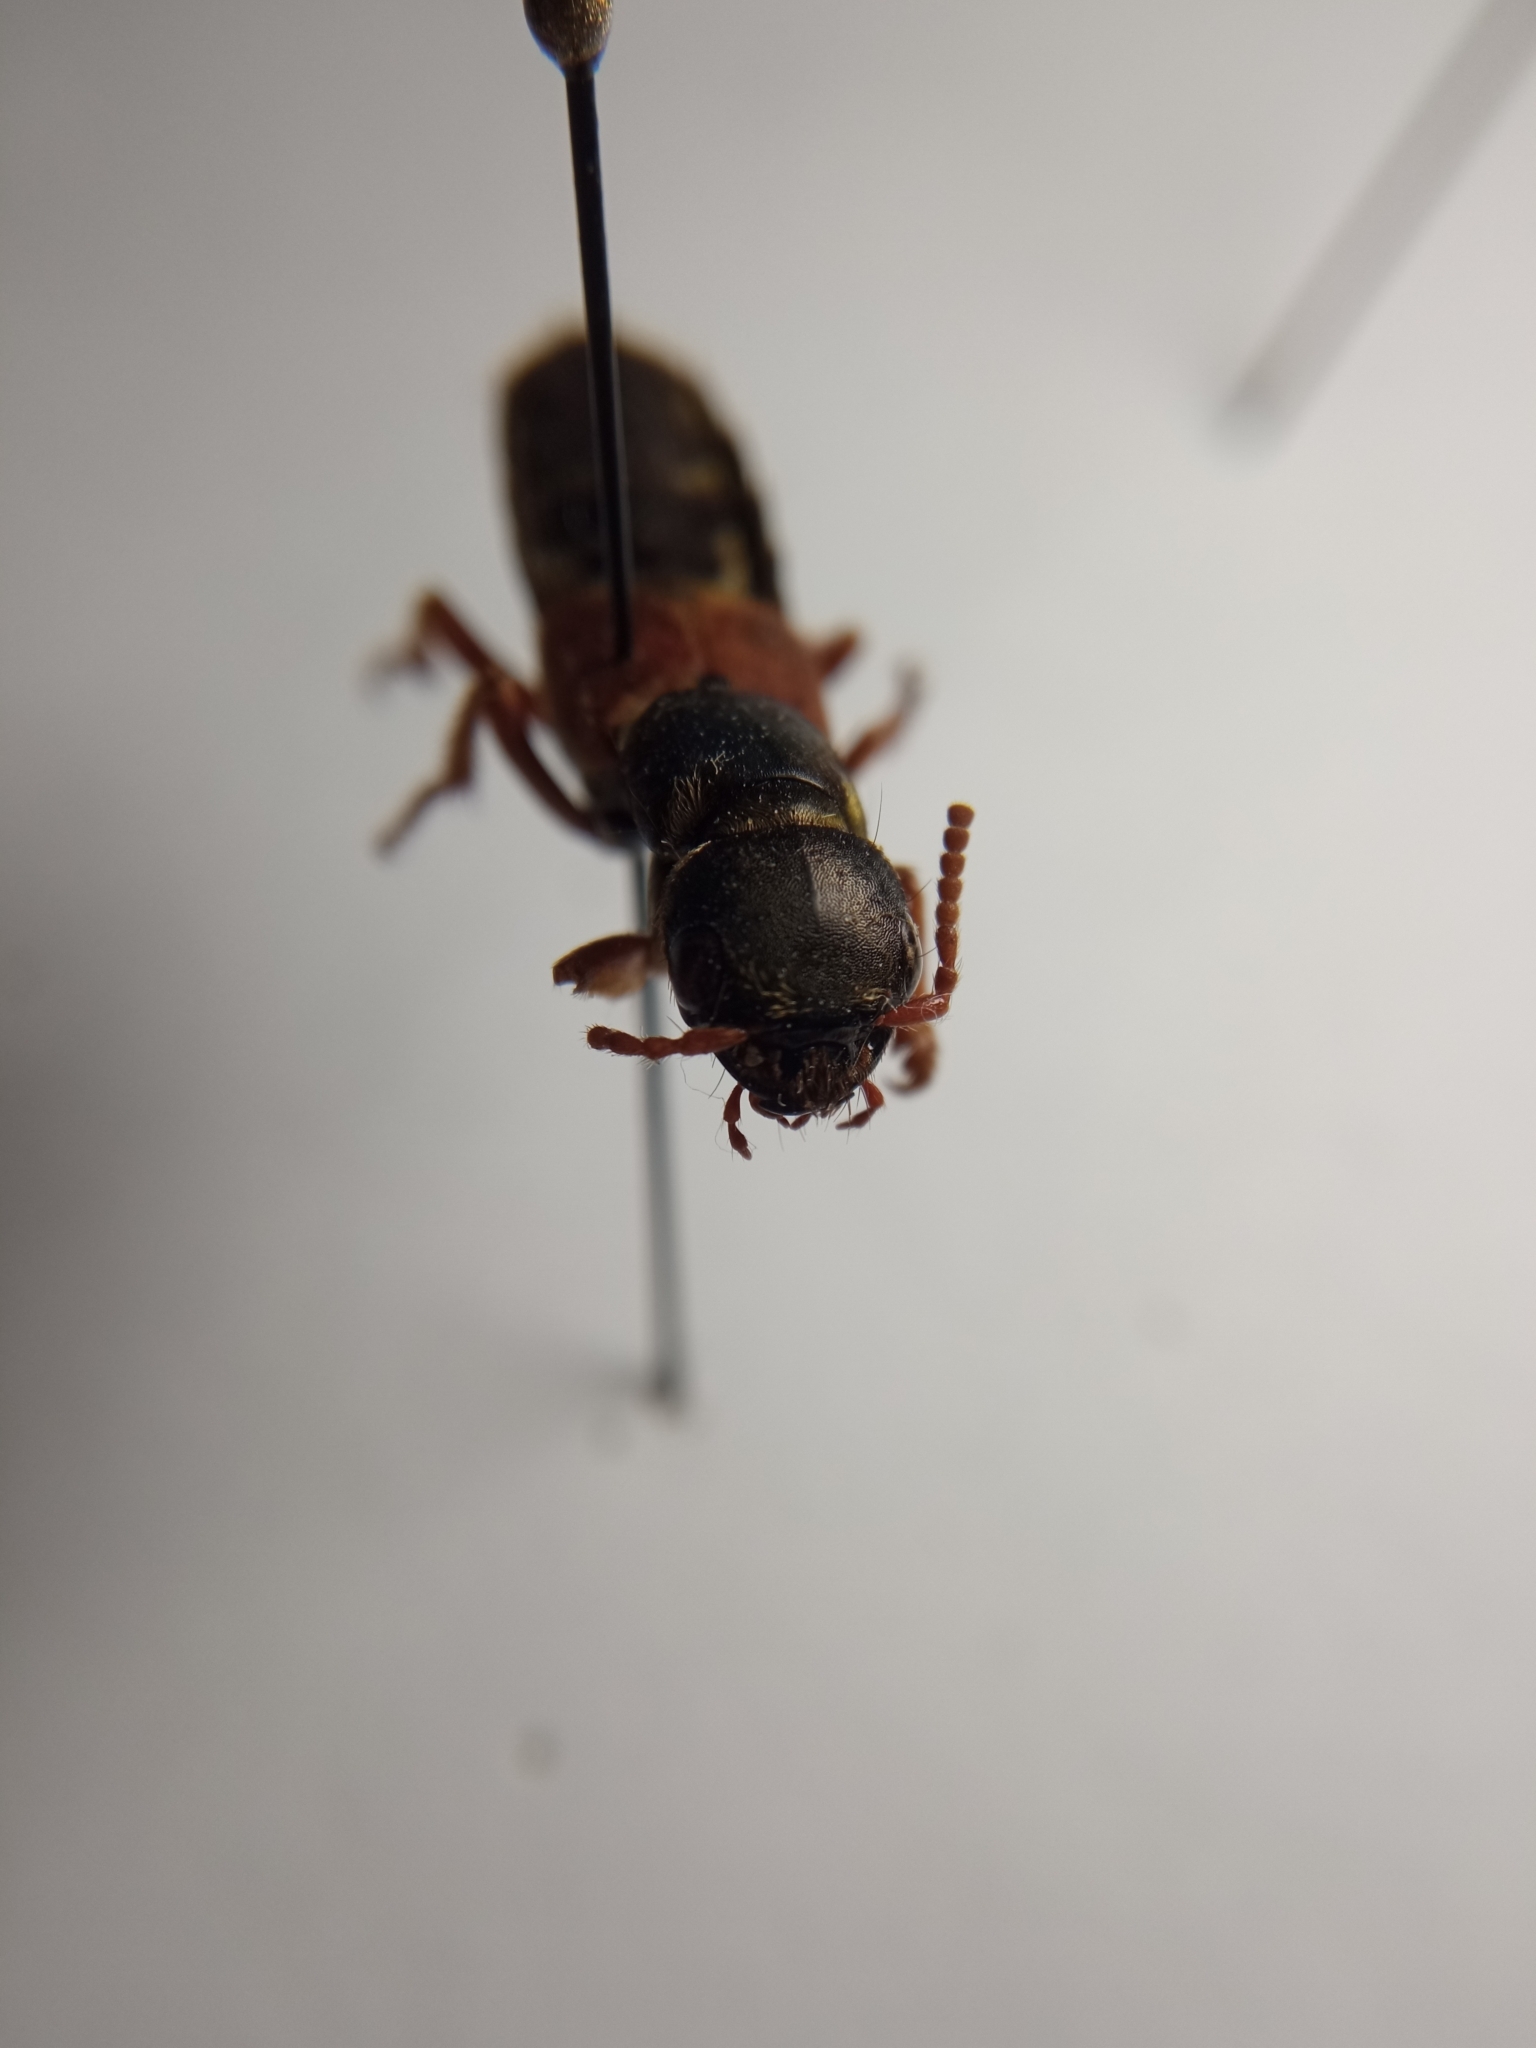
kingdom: Animalia
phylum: Arthropoda
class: Insecta
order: Coleoptera
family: Staphylinidae
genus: Staphylinus
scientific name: Staphylinus caesareus
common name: Staph beetle
